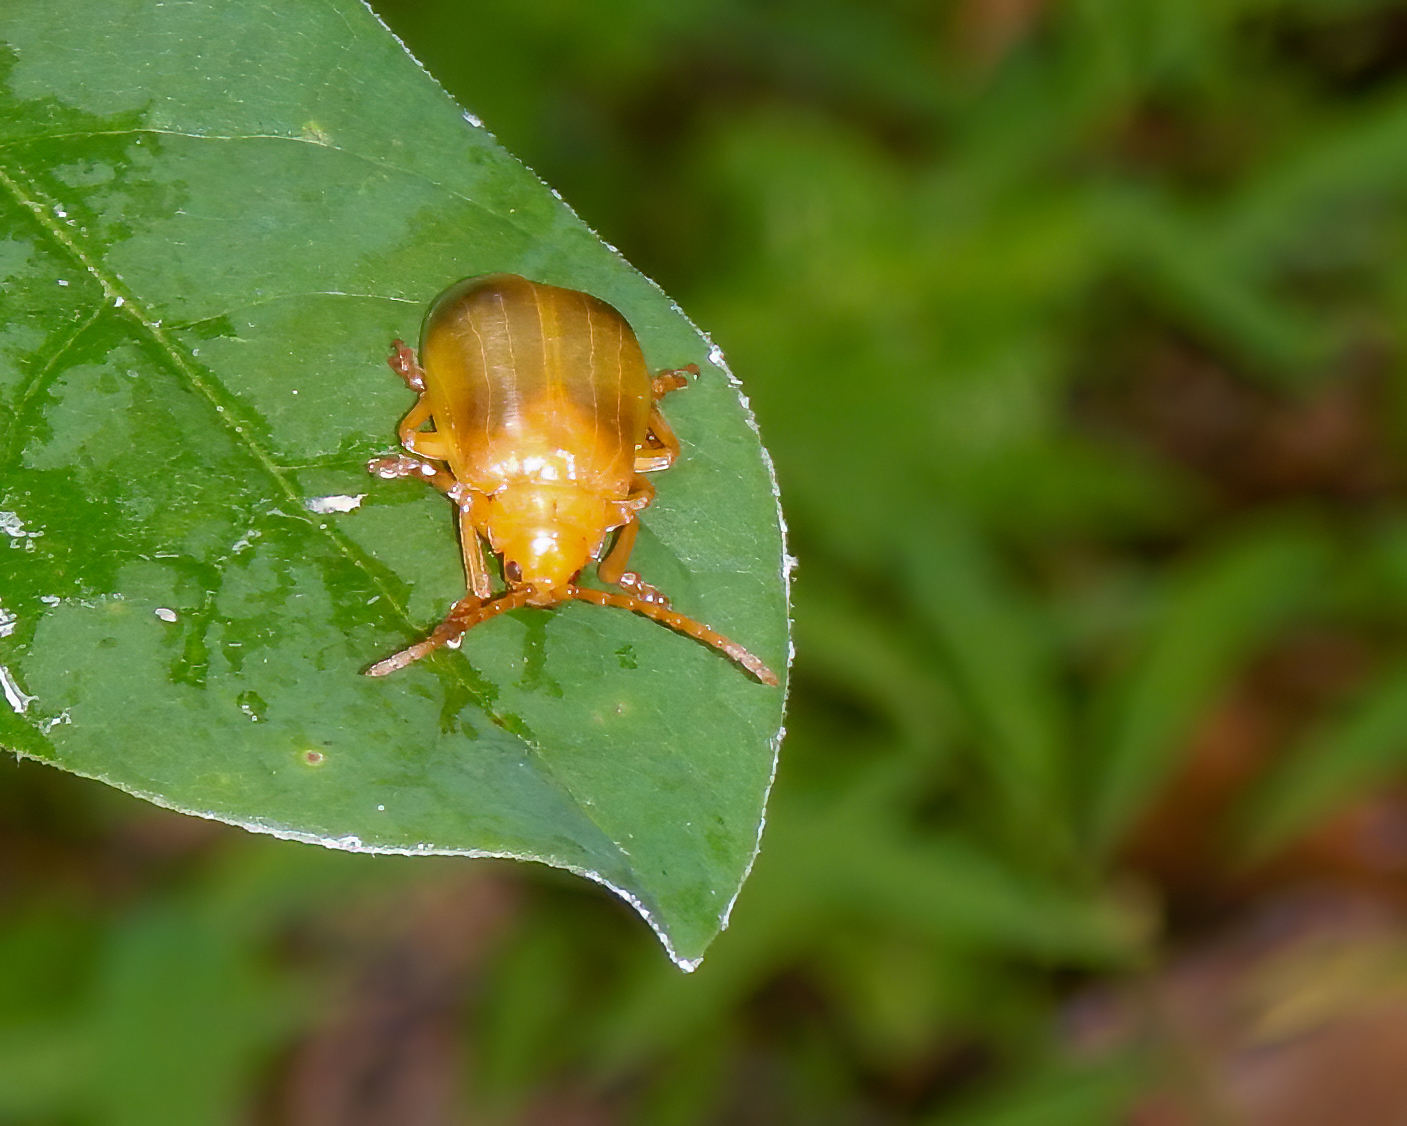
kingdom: Animalia
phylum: Arthropoda
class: Insecta
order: Coleoptera
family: Chrysomelidae
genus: Monocesta
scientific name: Monocesta coryli
